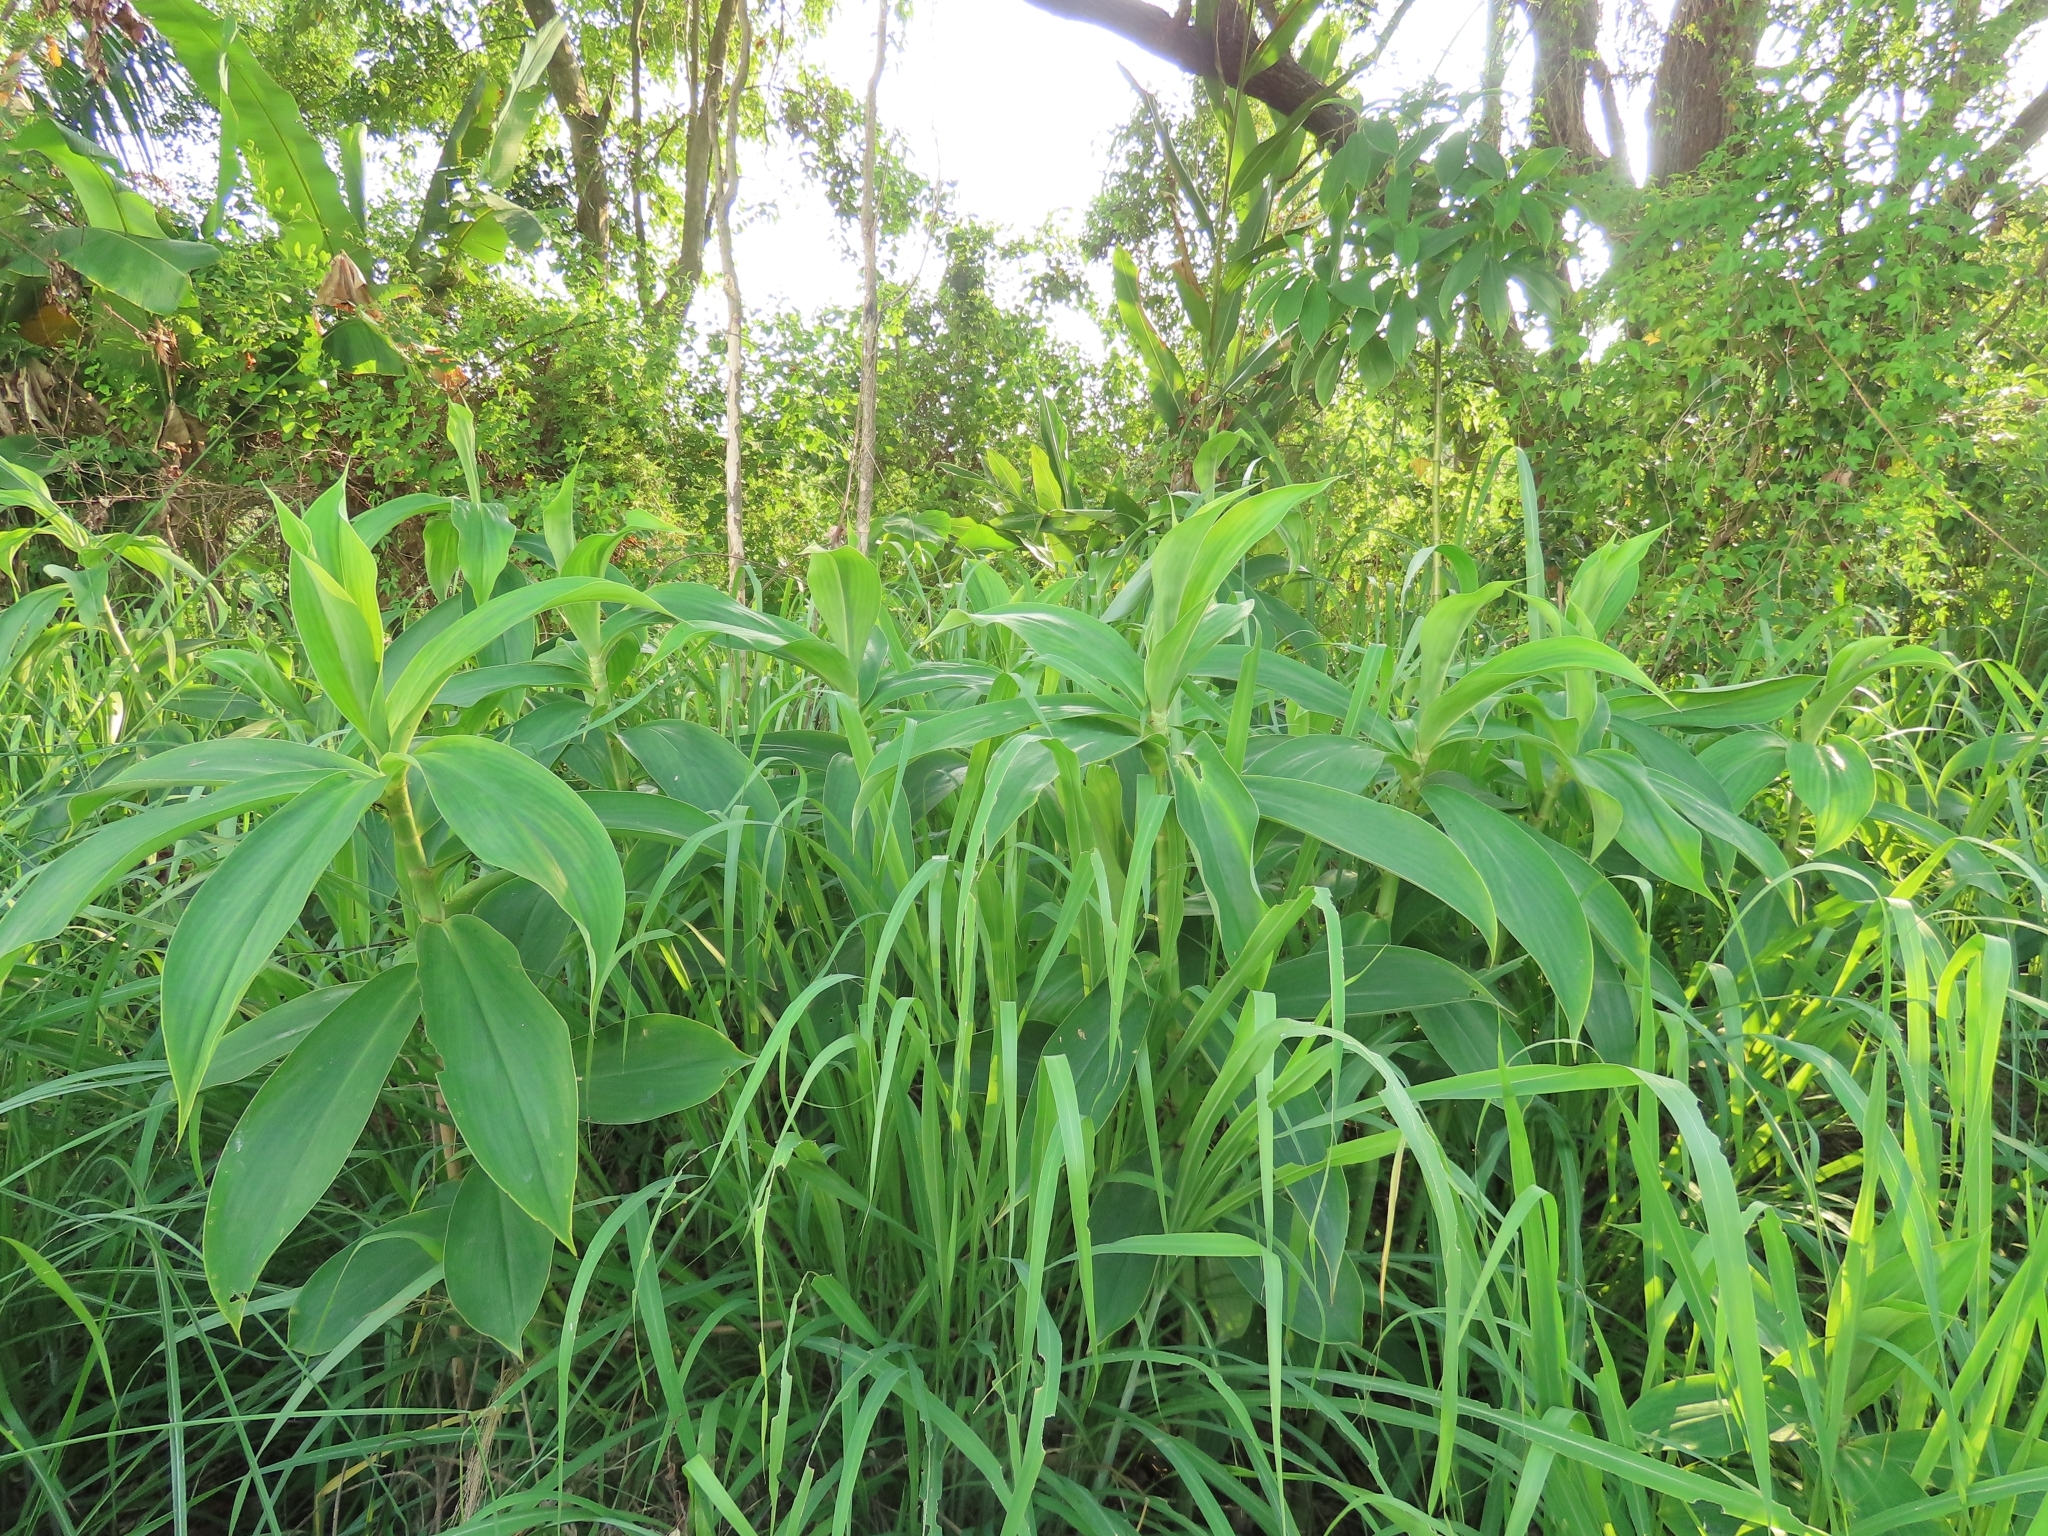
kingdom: Plantae
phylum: Tracheophyta
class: Liliopsida
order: Zingiberales
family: Costaceae
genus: Hellenia
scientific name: Hellenia speciosa
